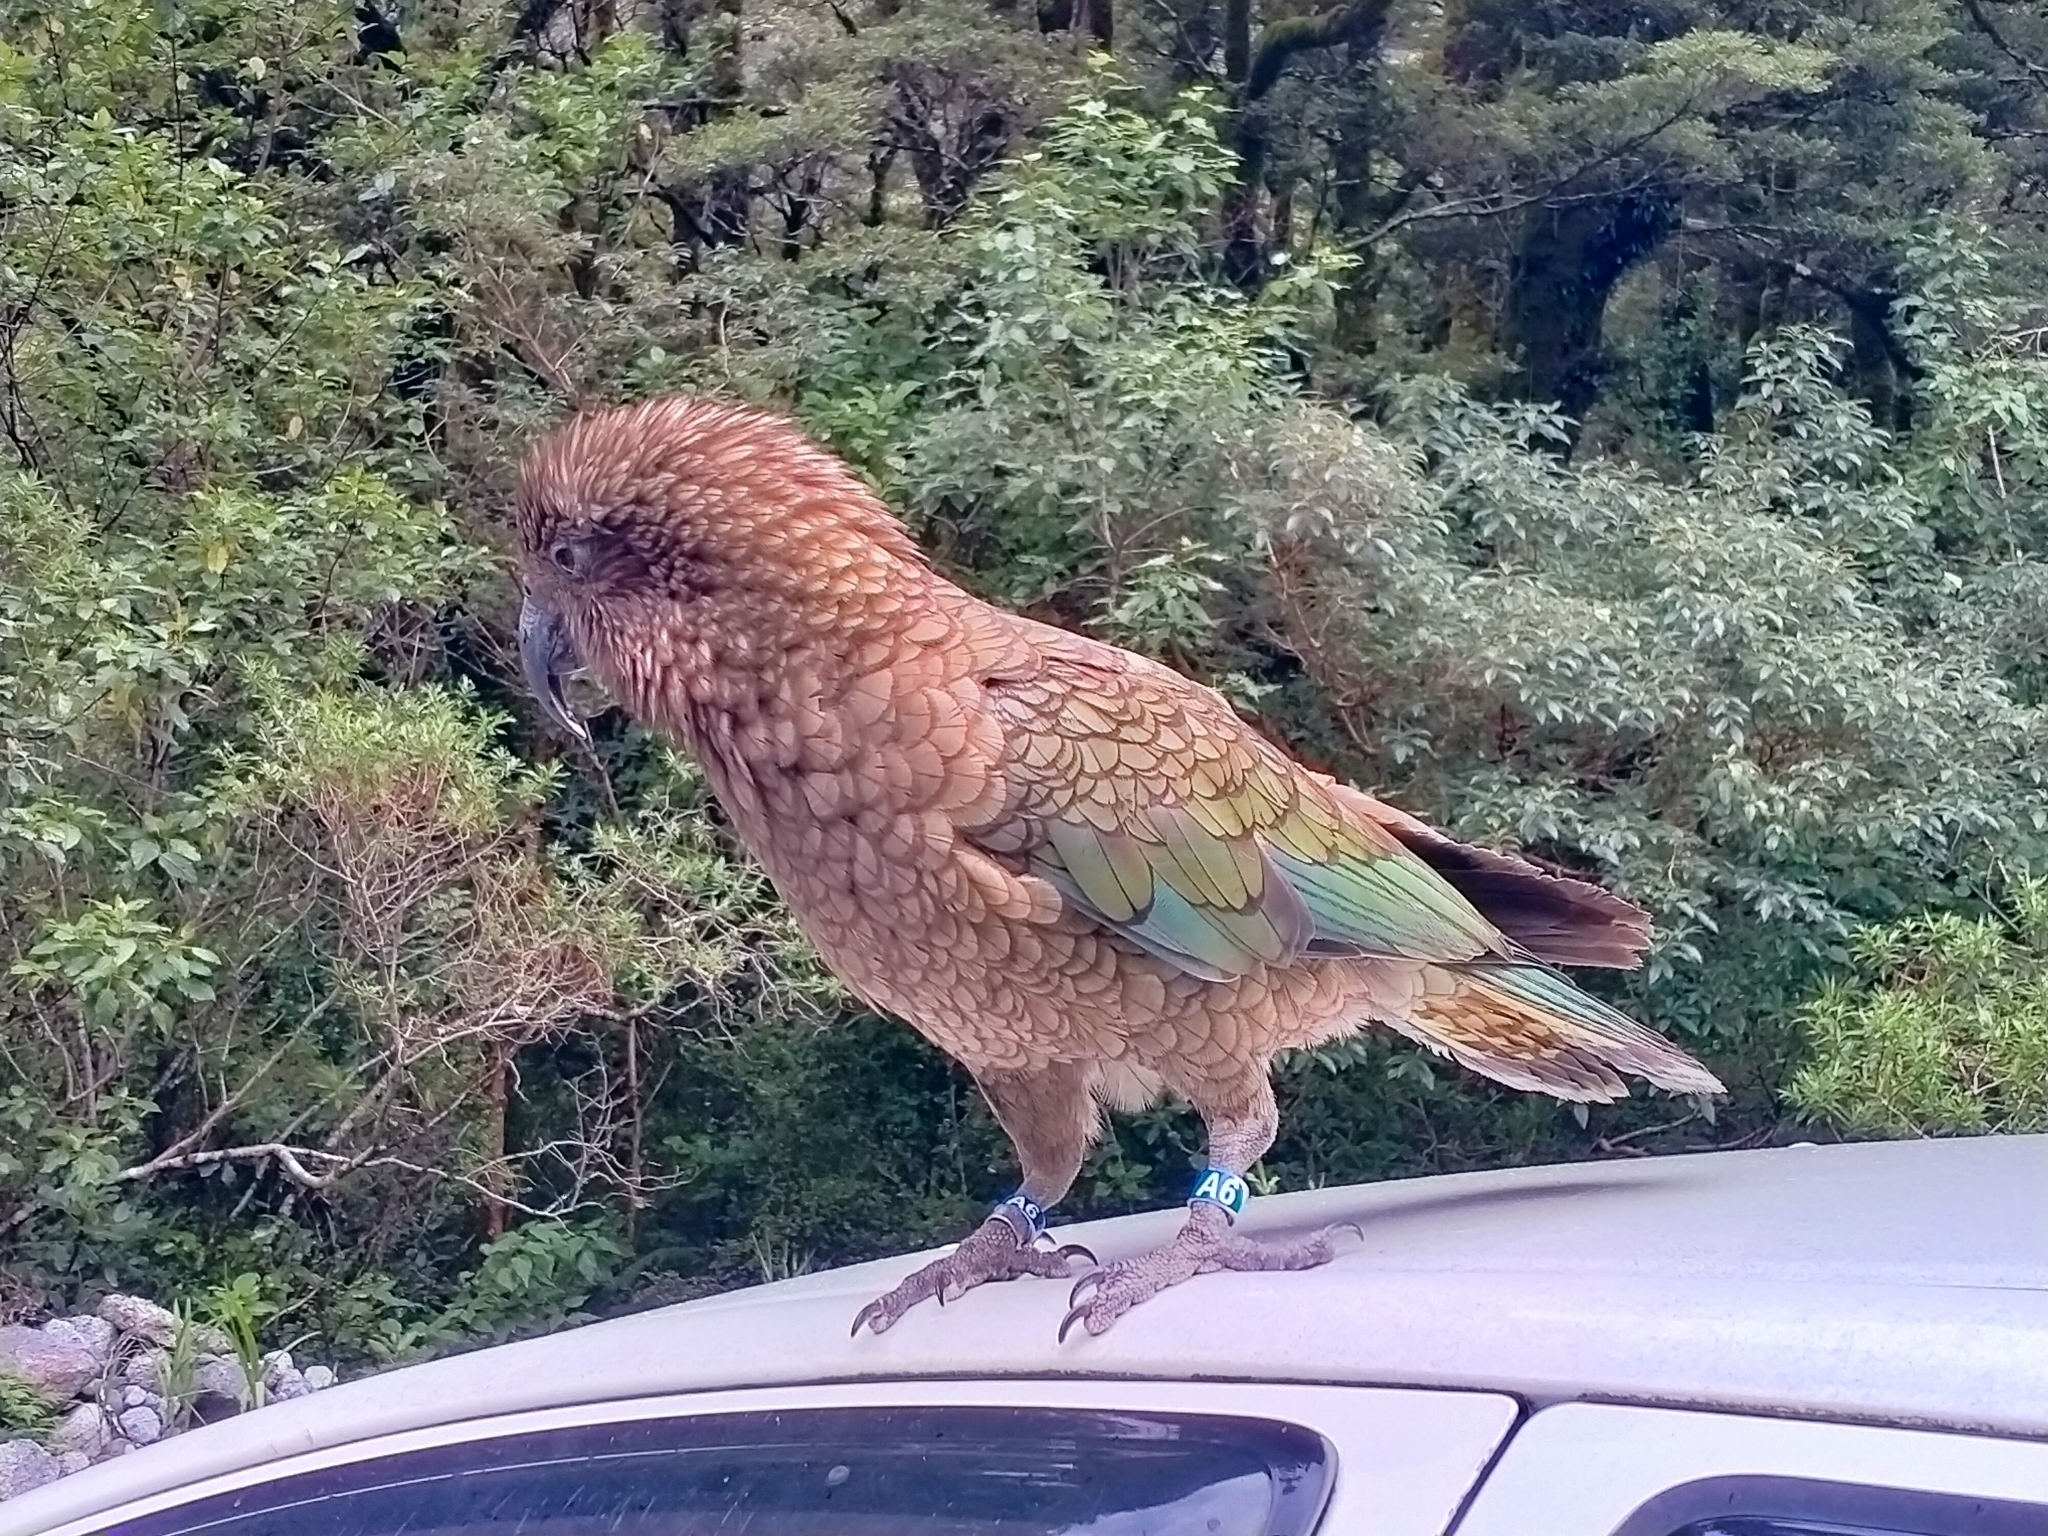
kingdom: Animalia
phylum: Chordata
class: Aves
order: Psittaciformes
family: Psittacidae
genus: Nestor
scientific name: Nestor notabilis
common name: Kea
